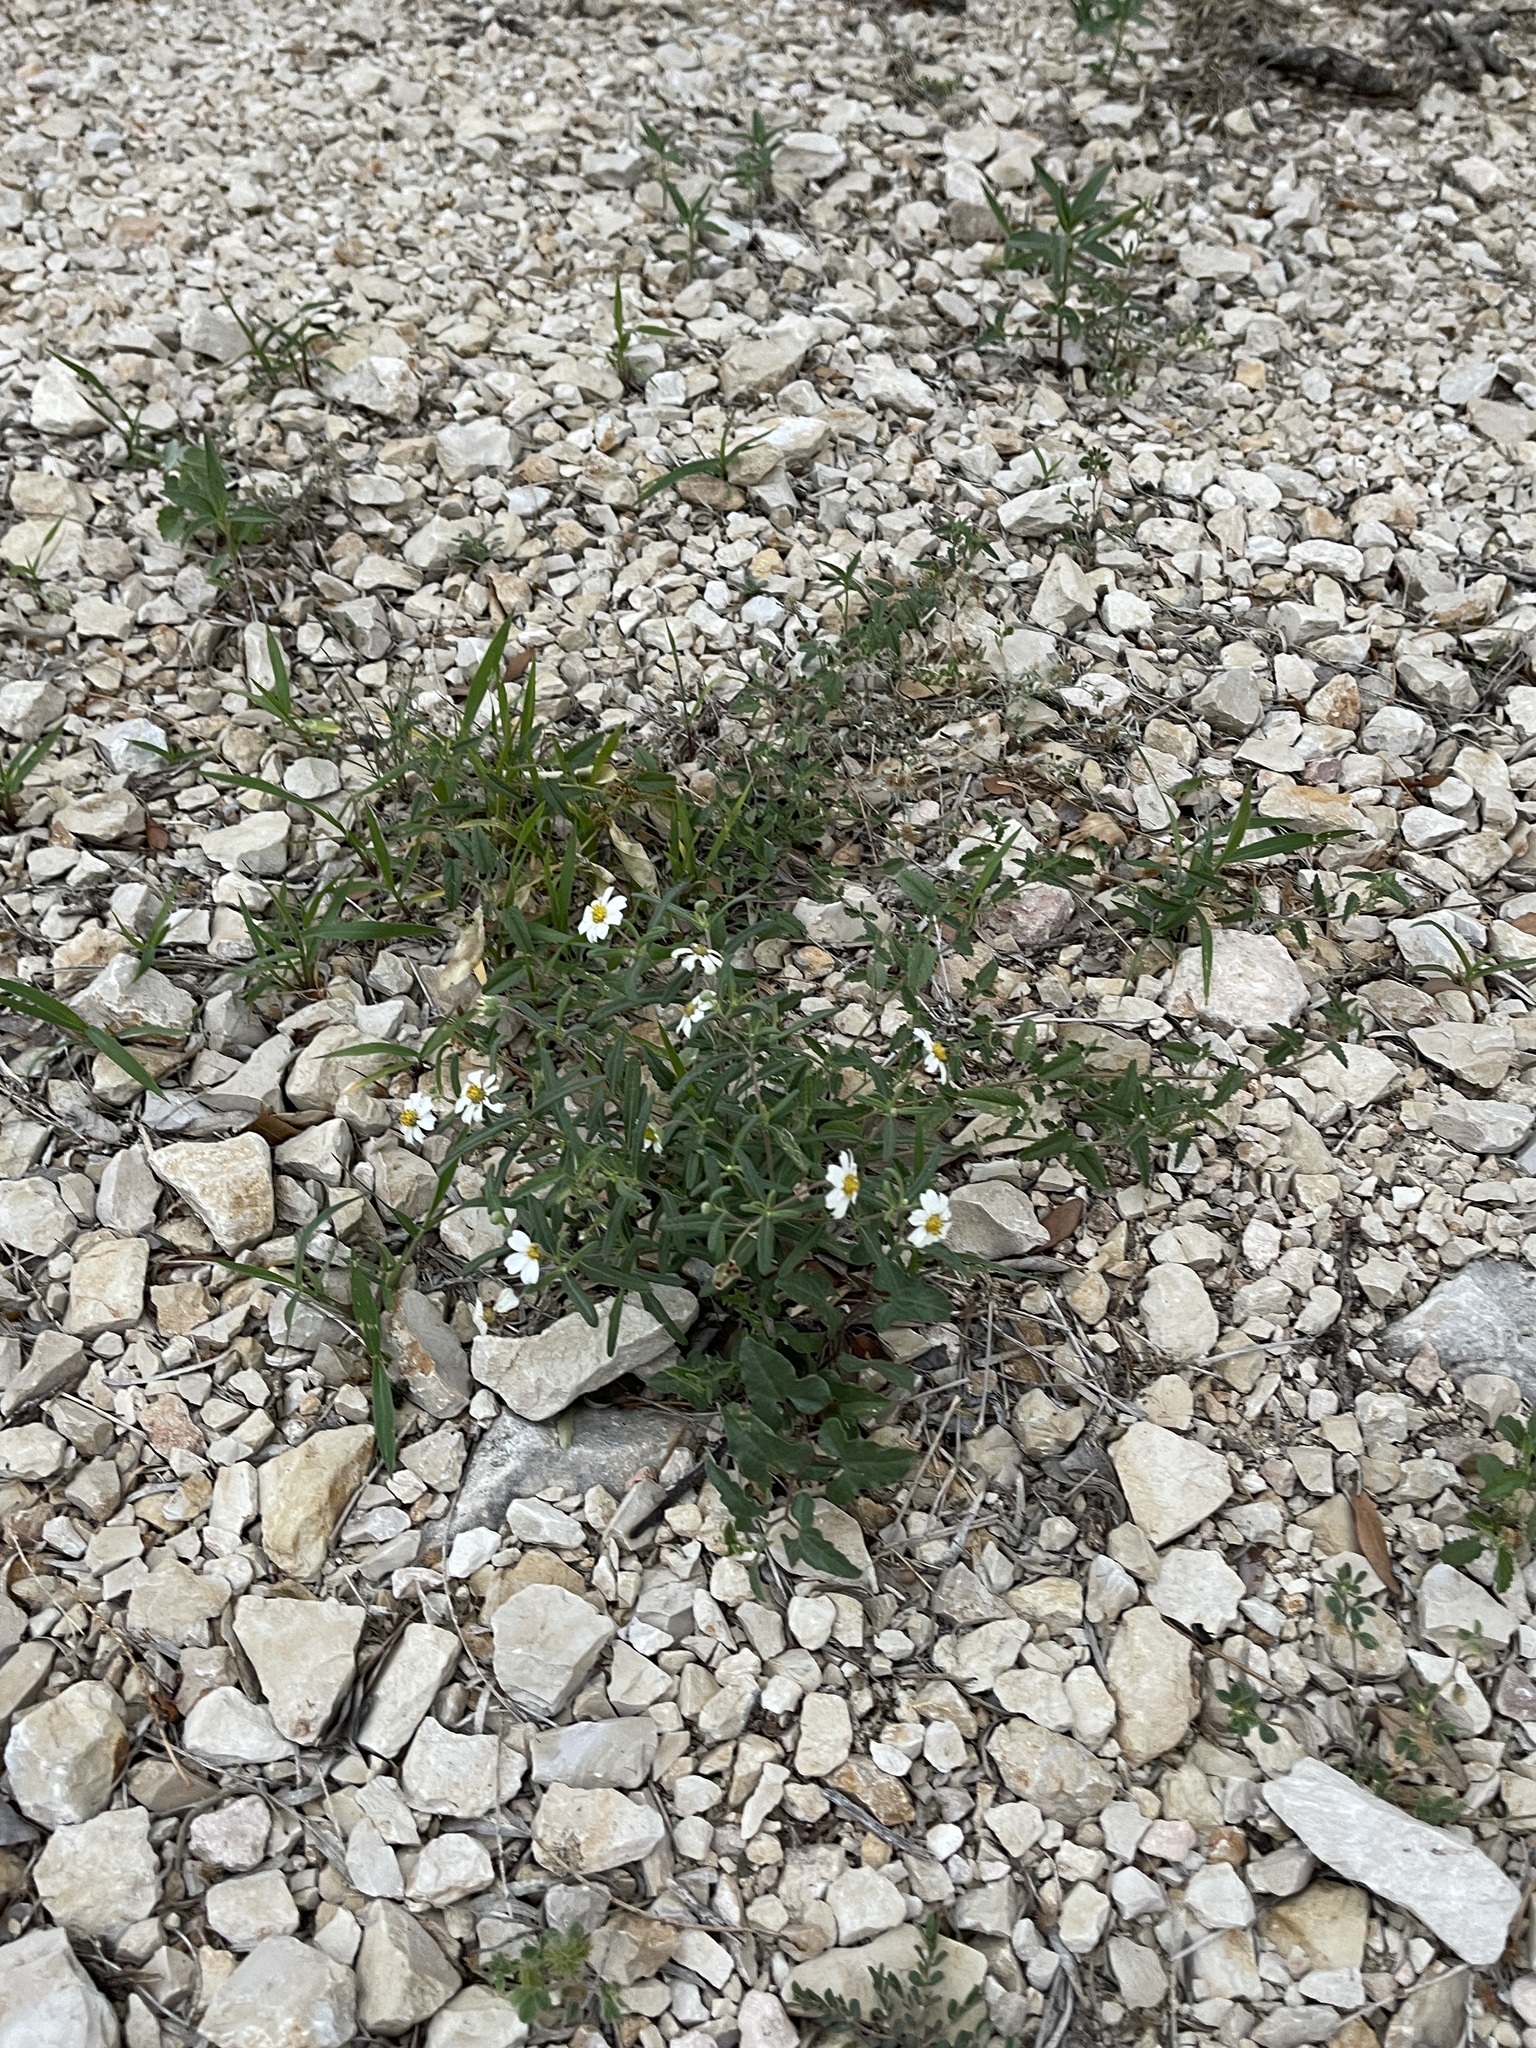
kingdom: Plantae
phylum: Tracheophyta
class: Magnoliopsida
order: Asterales
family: Asteraceae
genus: Melampodium
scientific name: Melampodium leucanthum
